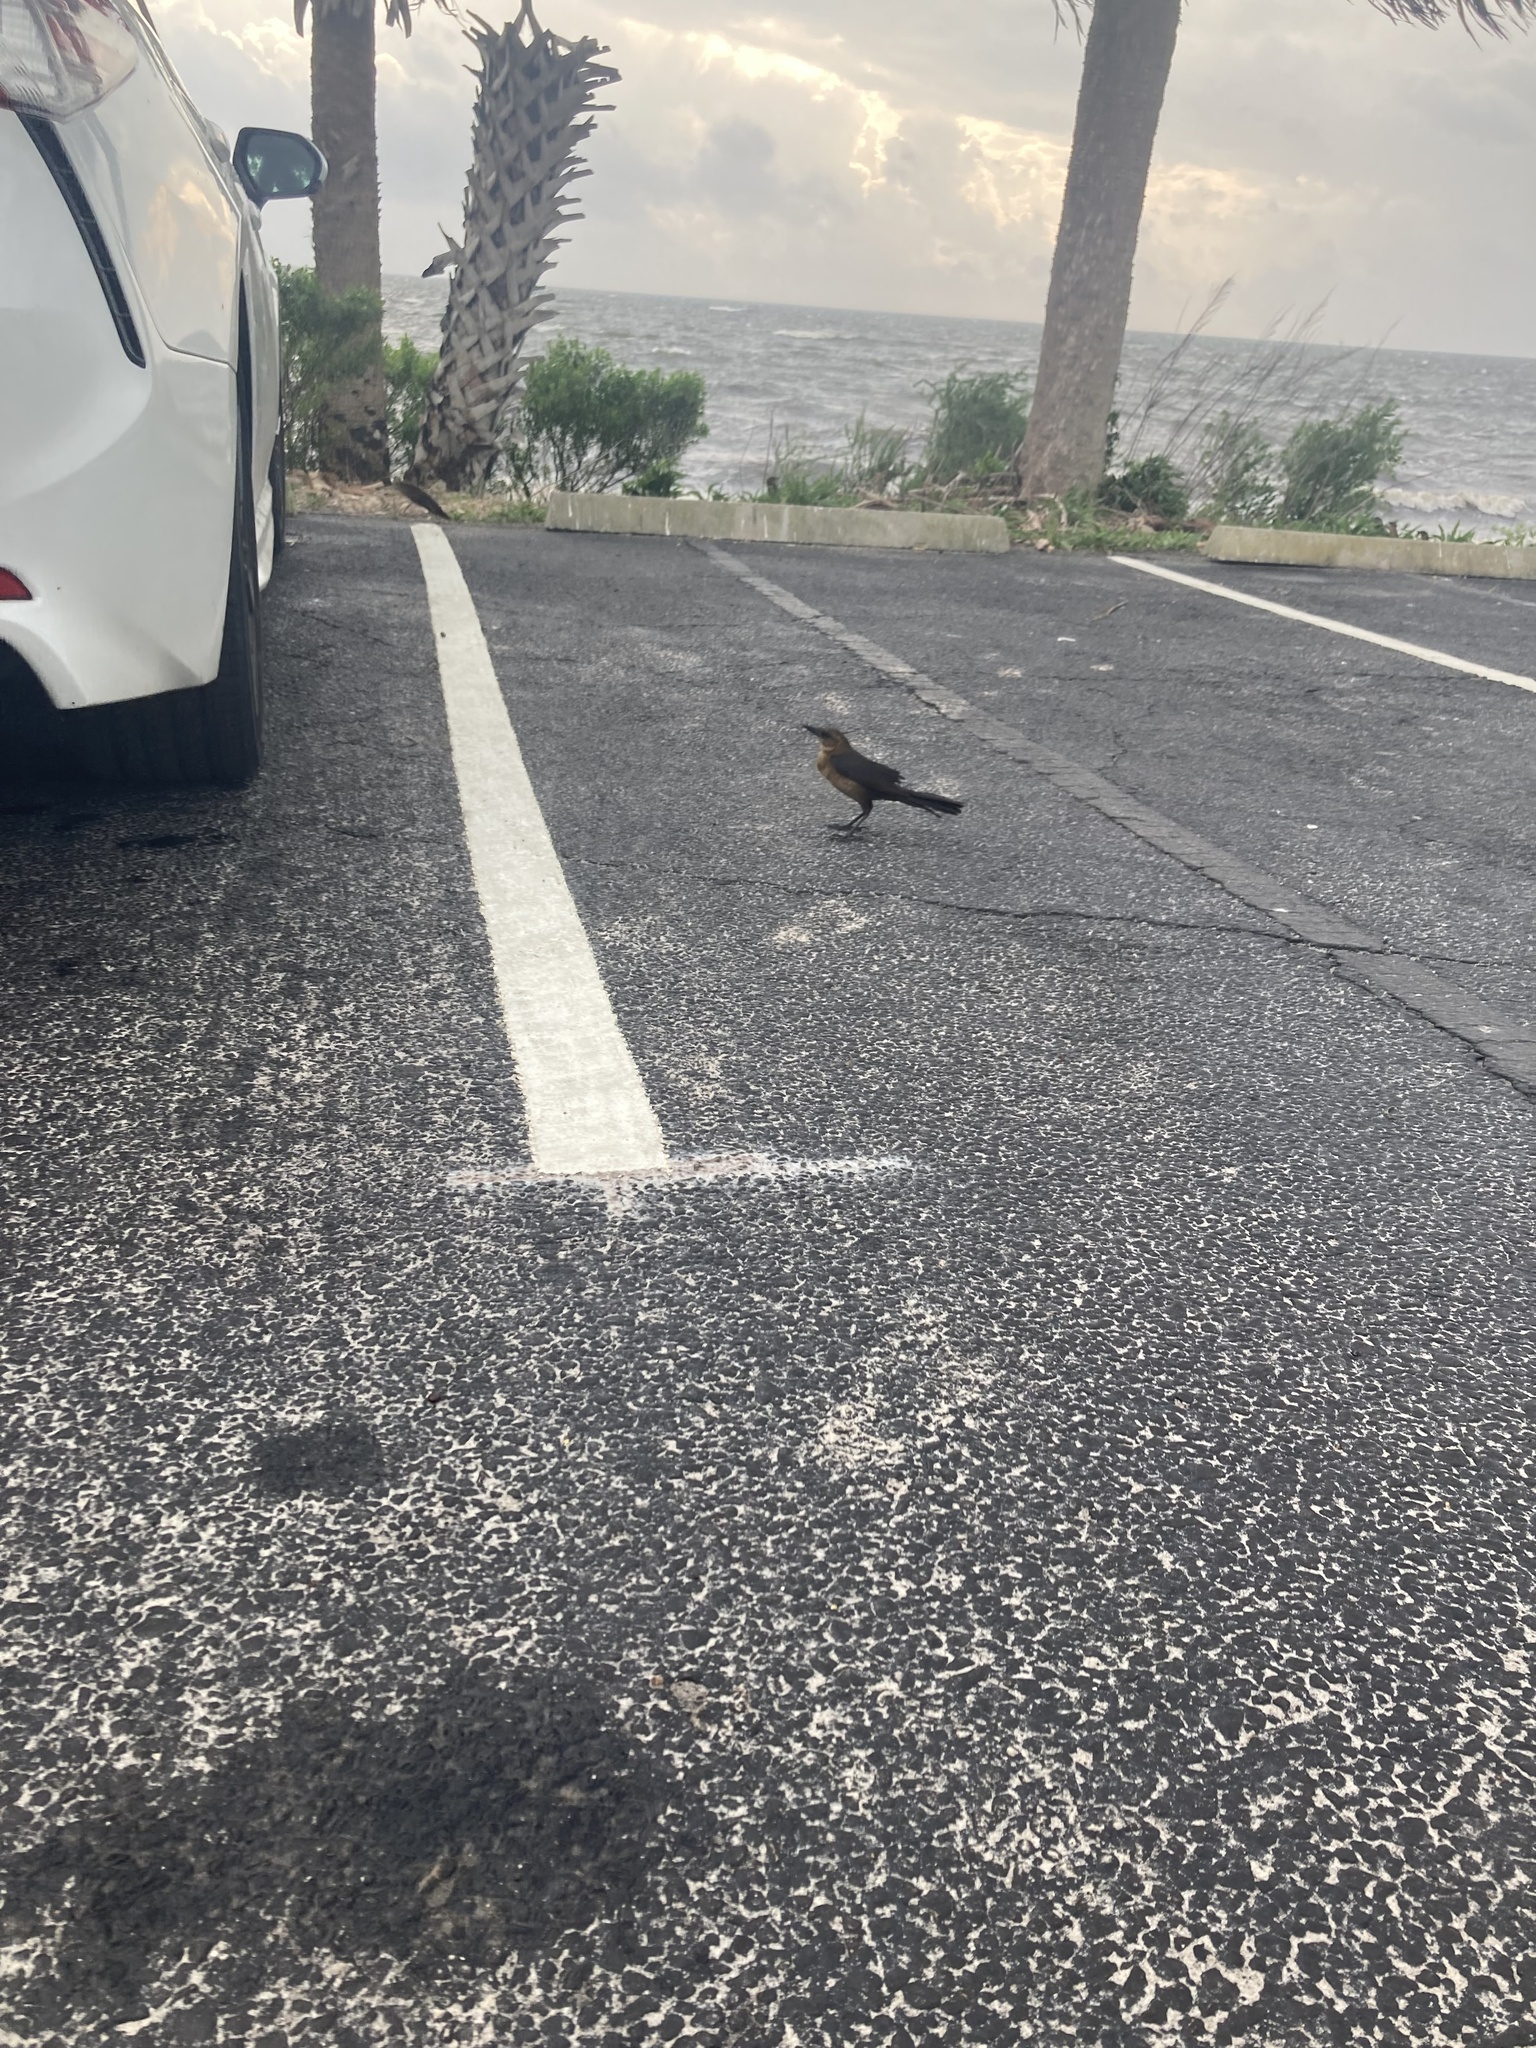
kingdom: Animalia
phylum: Chordata
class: Aves
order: Passeriformes
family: Icteridae
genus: Quiscalus
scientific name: Quiscalus major
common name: Boat-tailed grackle
